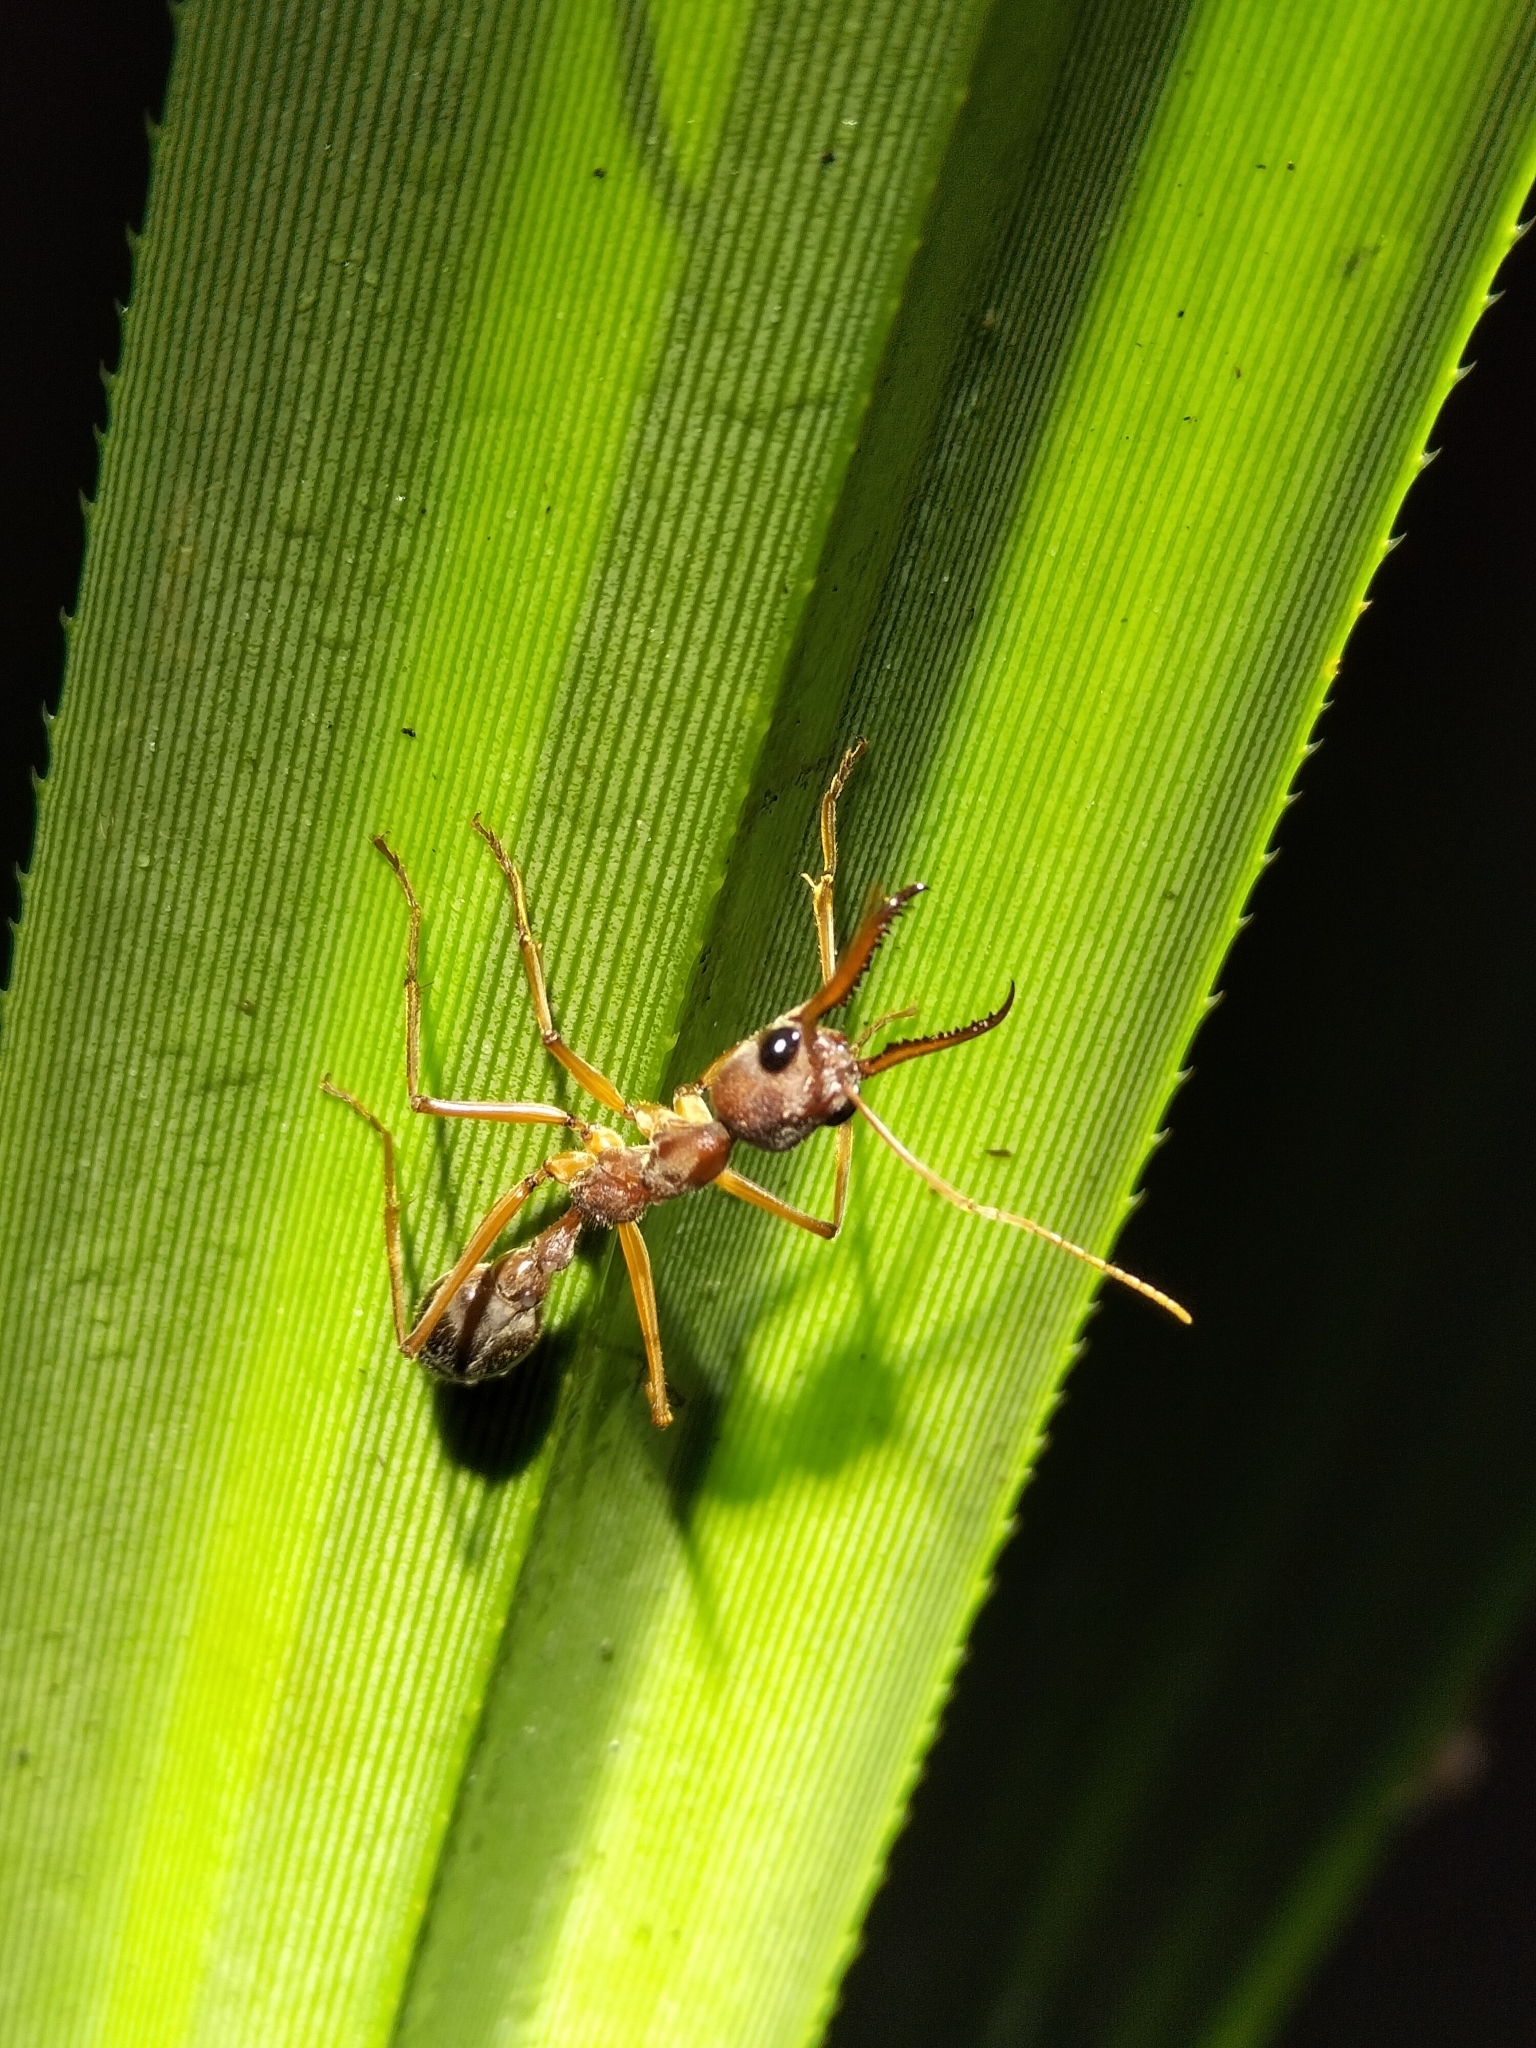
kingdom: Animalia
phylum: Arthropoda
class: Insecta
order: Hymenoptera
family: Formicidae
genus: Myrmecia
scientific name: Myrmecia mjobergi
